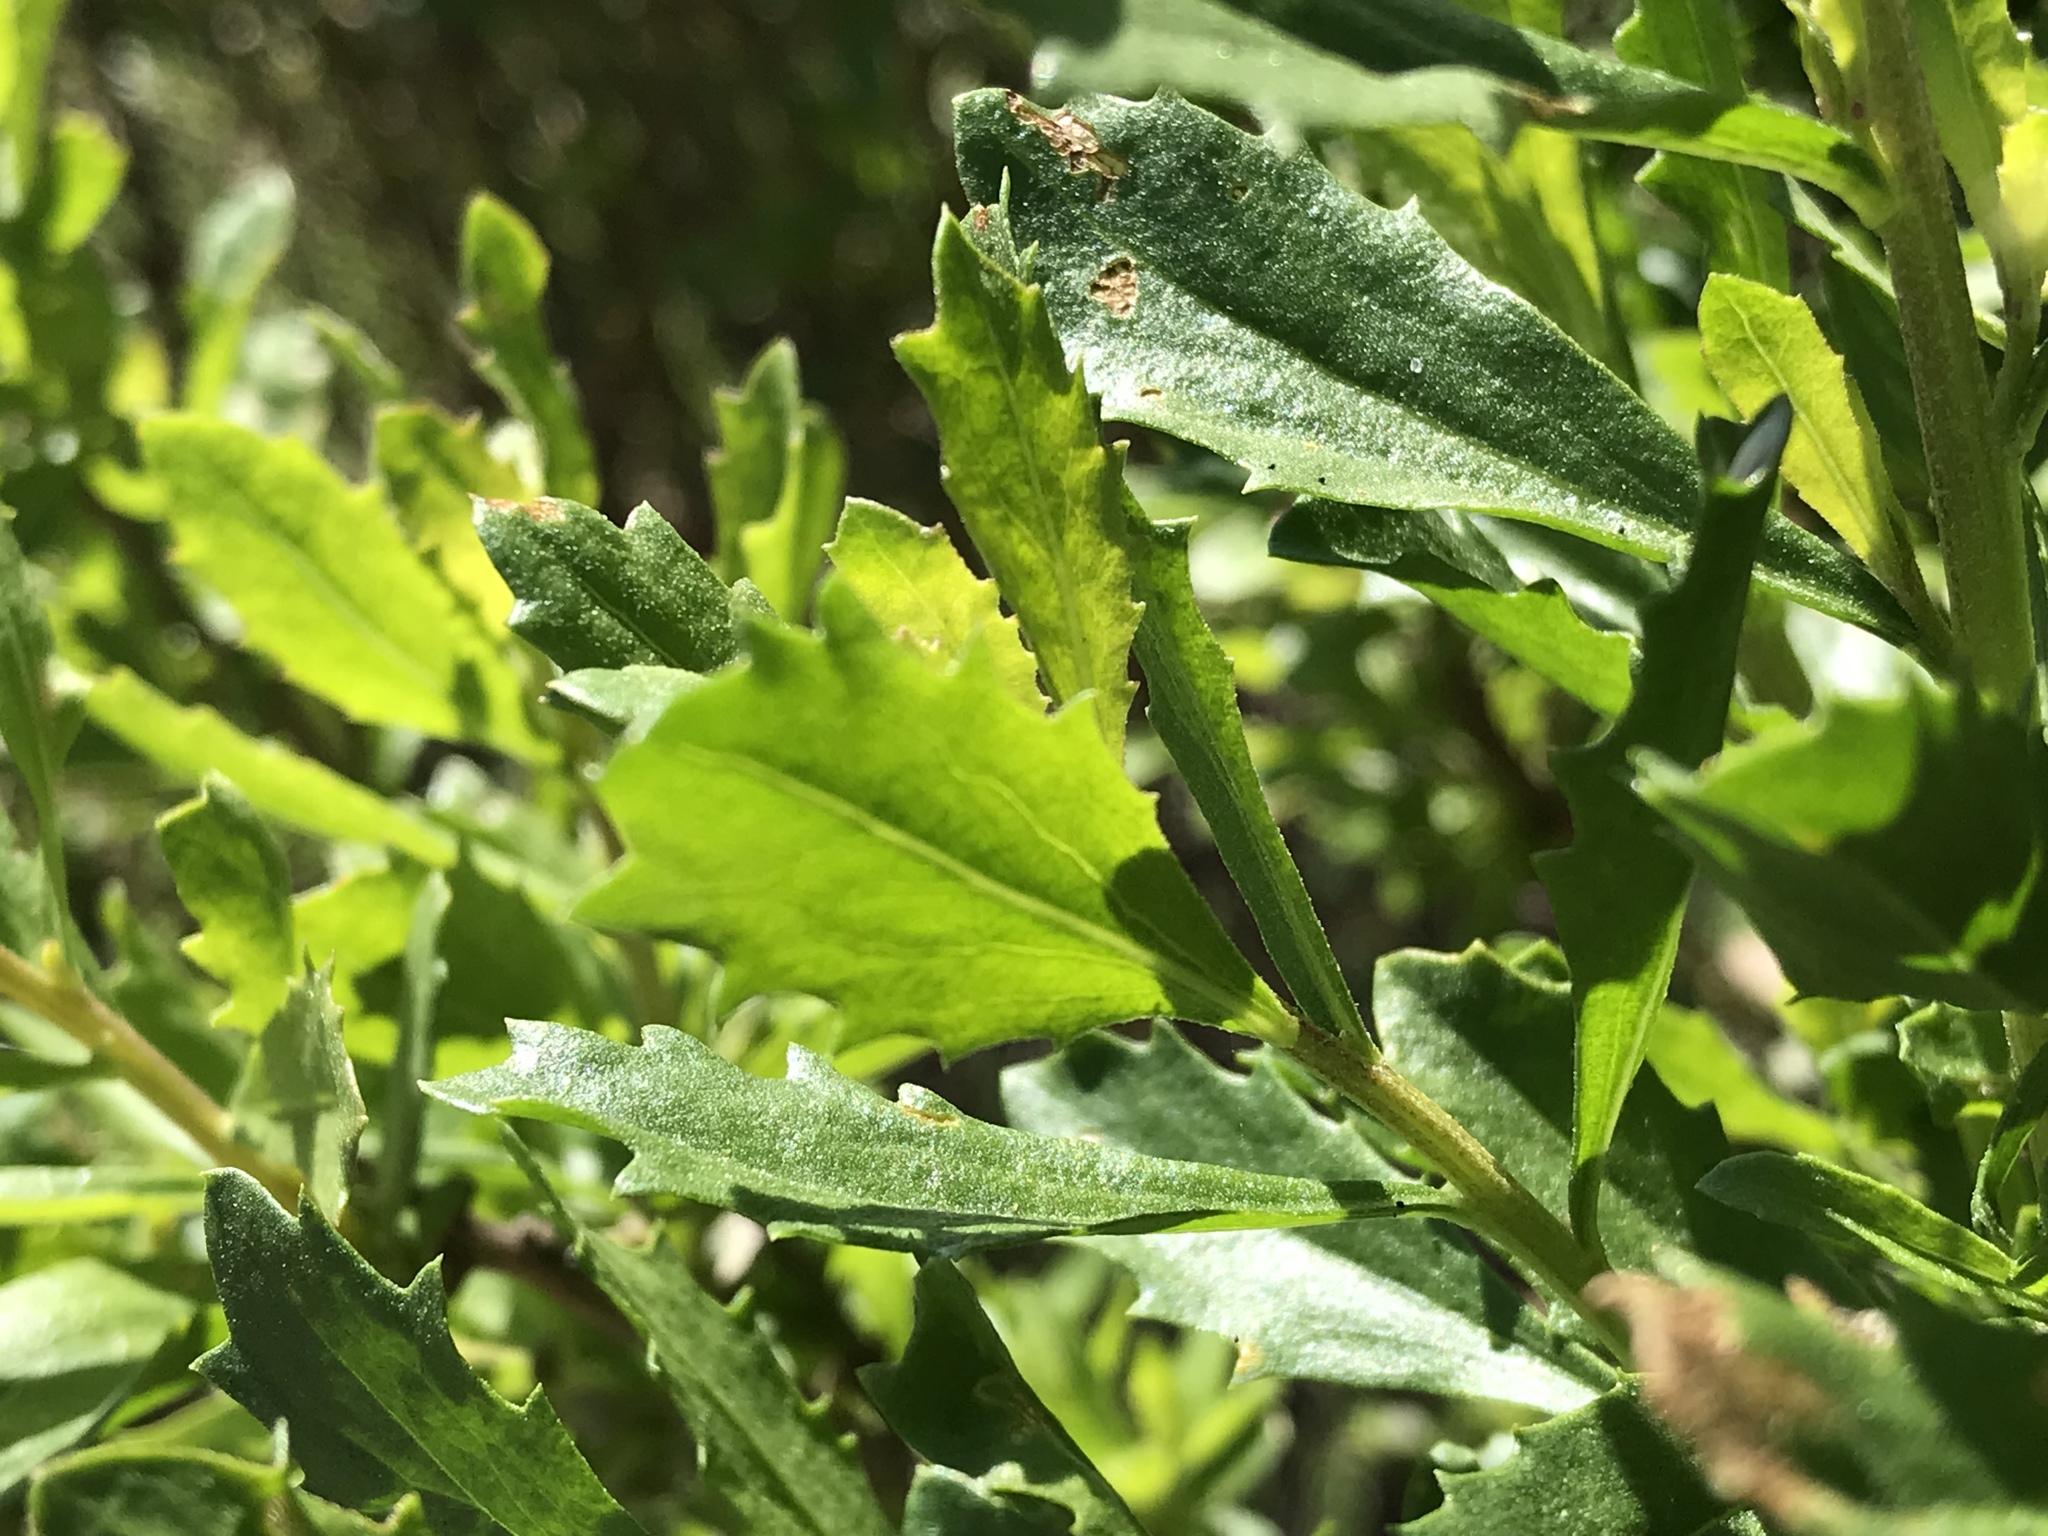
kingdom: Plantae
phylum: Tracheophyta
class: Magnoliopsida
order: Asterales
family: Asteraceae
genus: Baccharis
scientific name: Baccharis pilularis
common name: Coyotebrush
